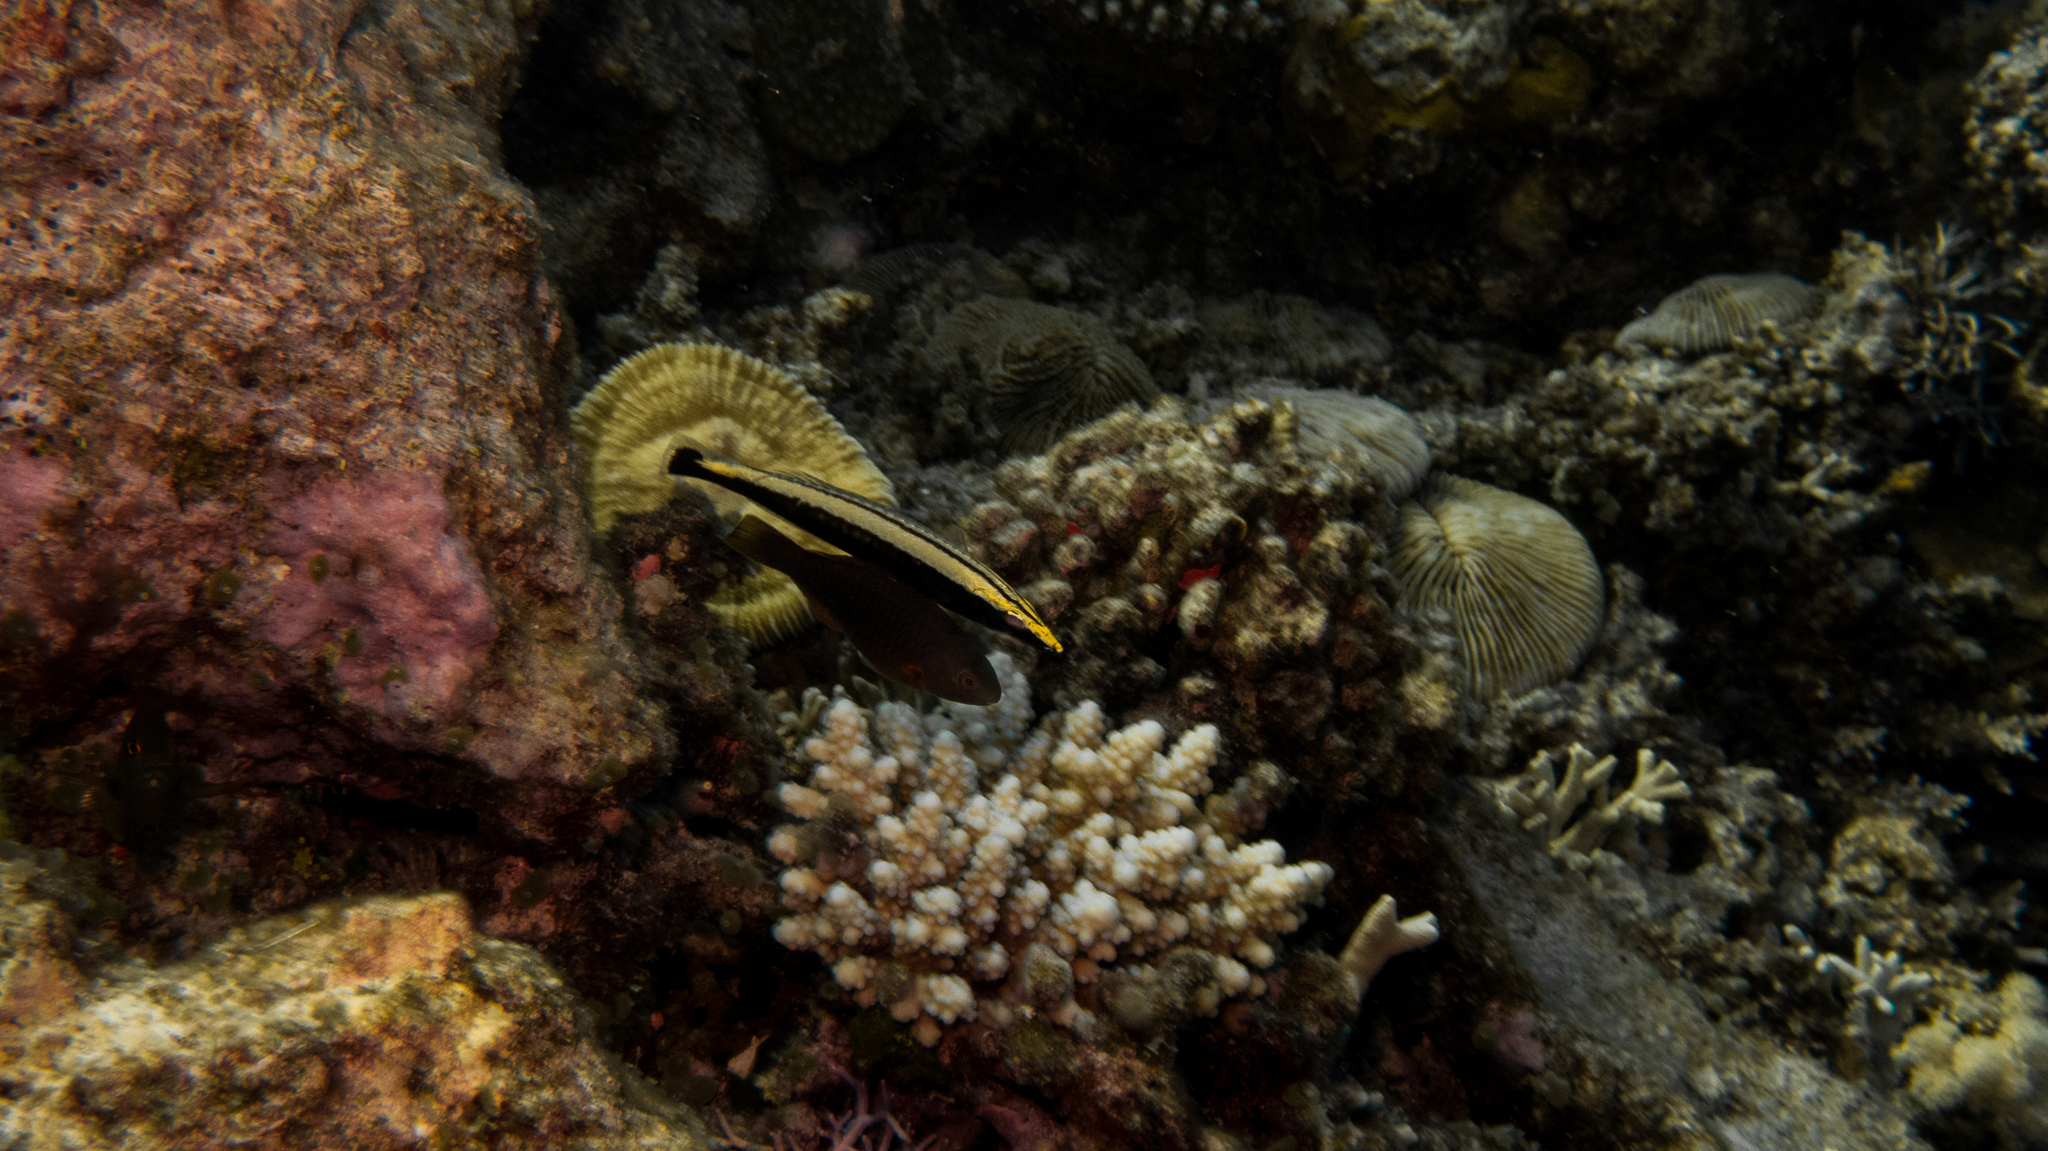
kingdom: Animalia
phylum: Chordata
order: Perciformes
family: Labridae
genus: Hologymnosus
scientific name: Hologymnosus annulatus
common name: Ring wrasse
